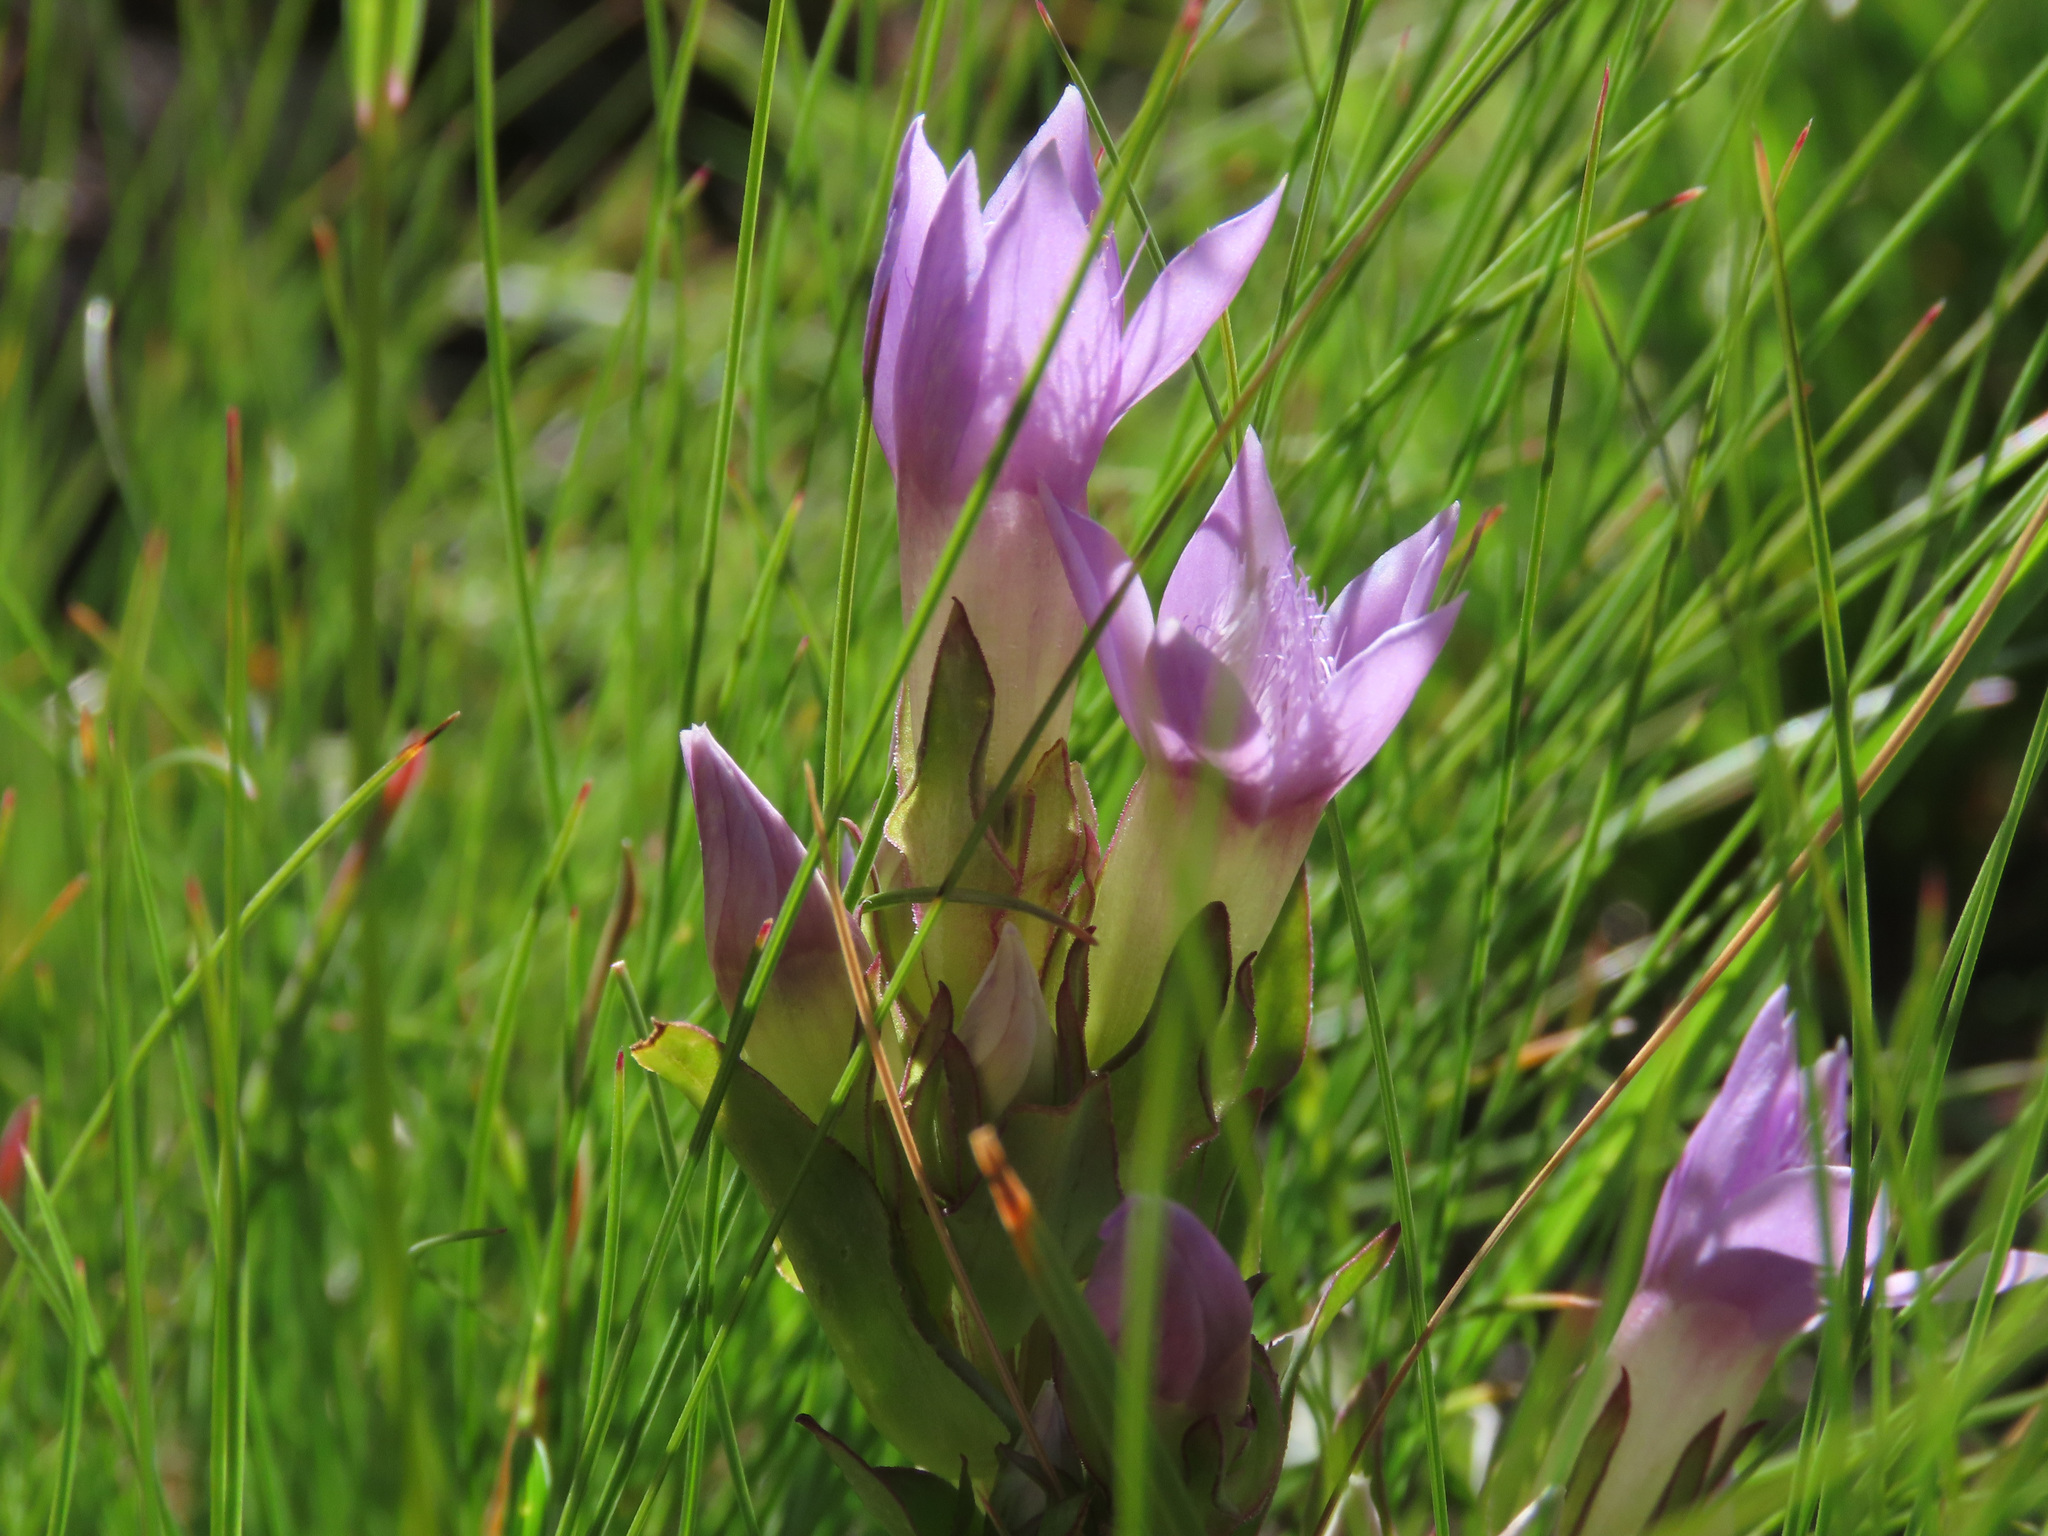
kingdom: Plantae
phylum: Tracheophyta
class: Magnoliopsida
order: Gentianales
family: Gentianaceae
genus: Gentianella
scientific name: Gentianella anisodonta
